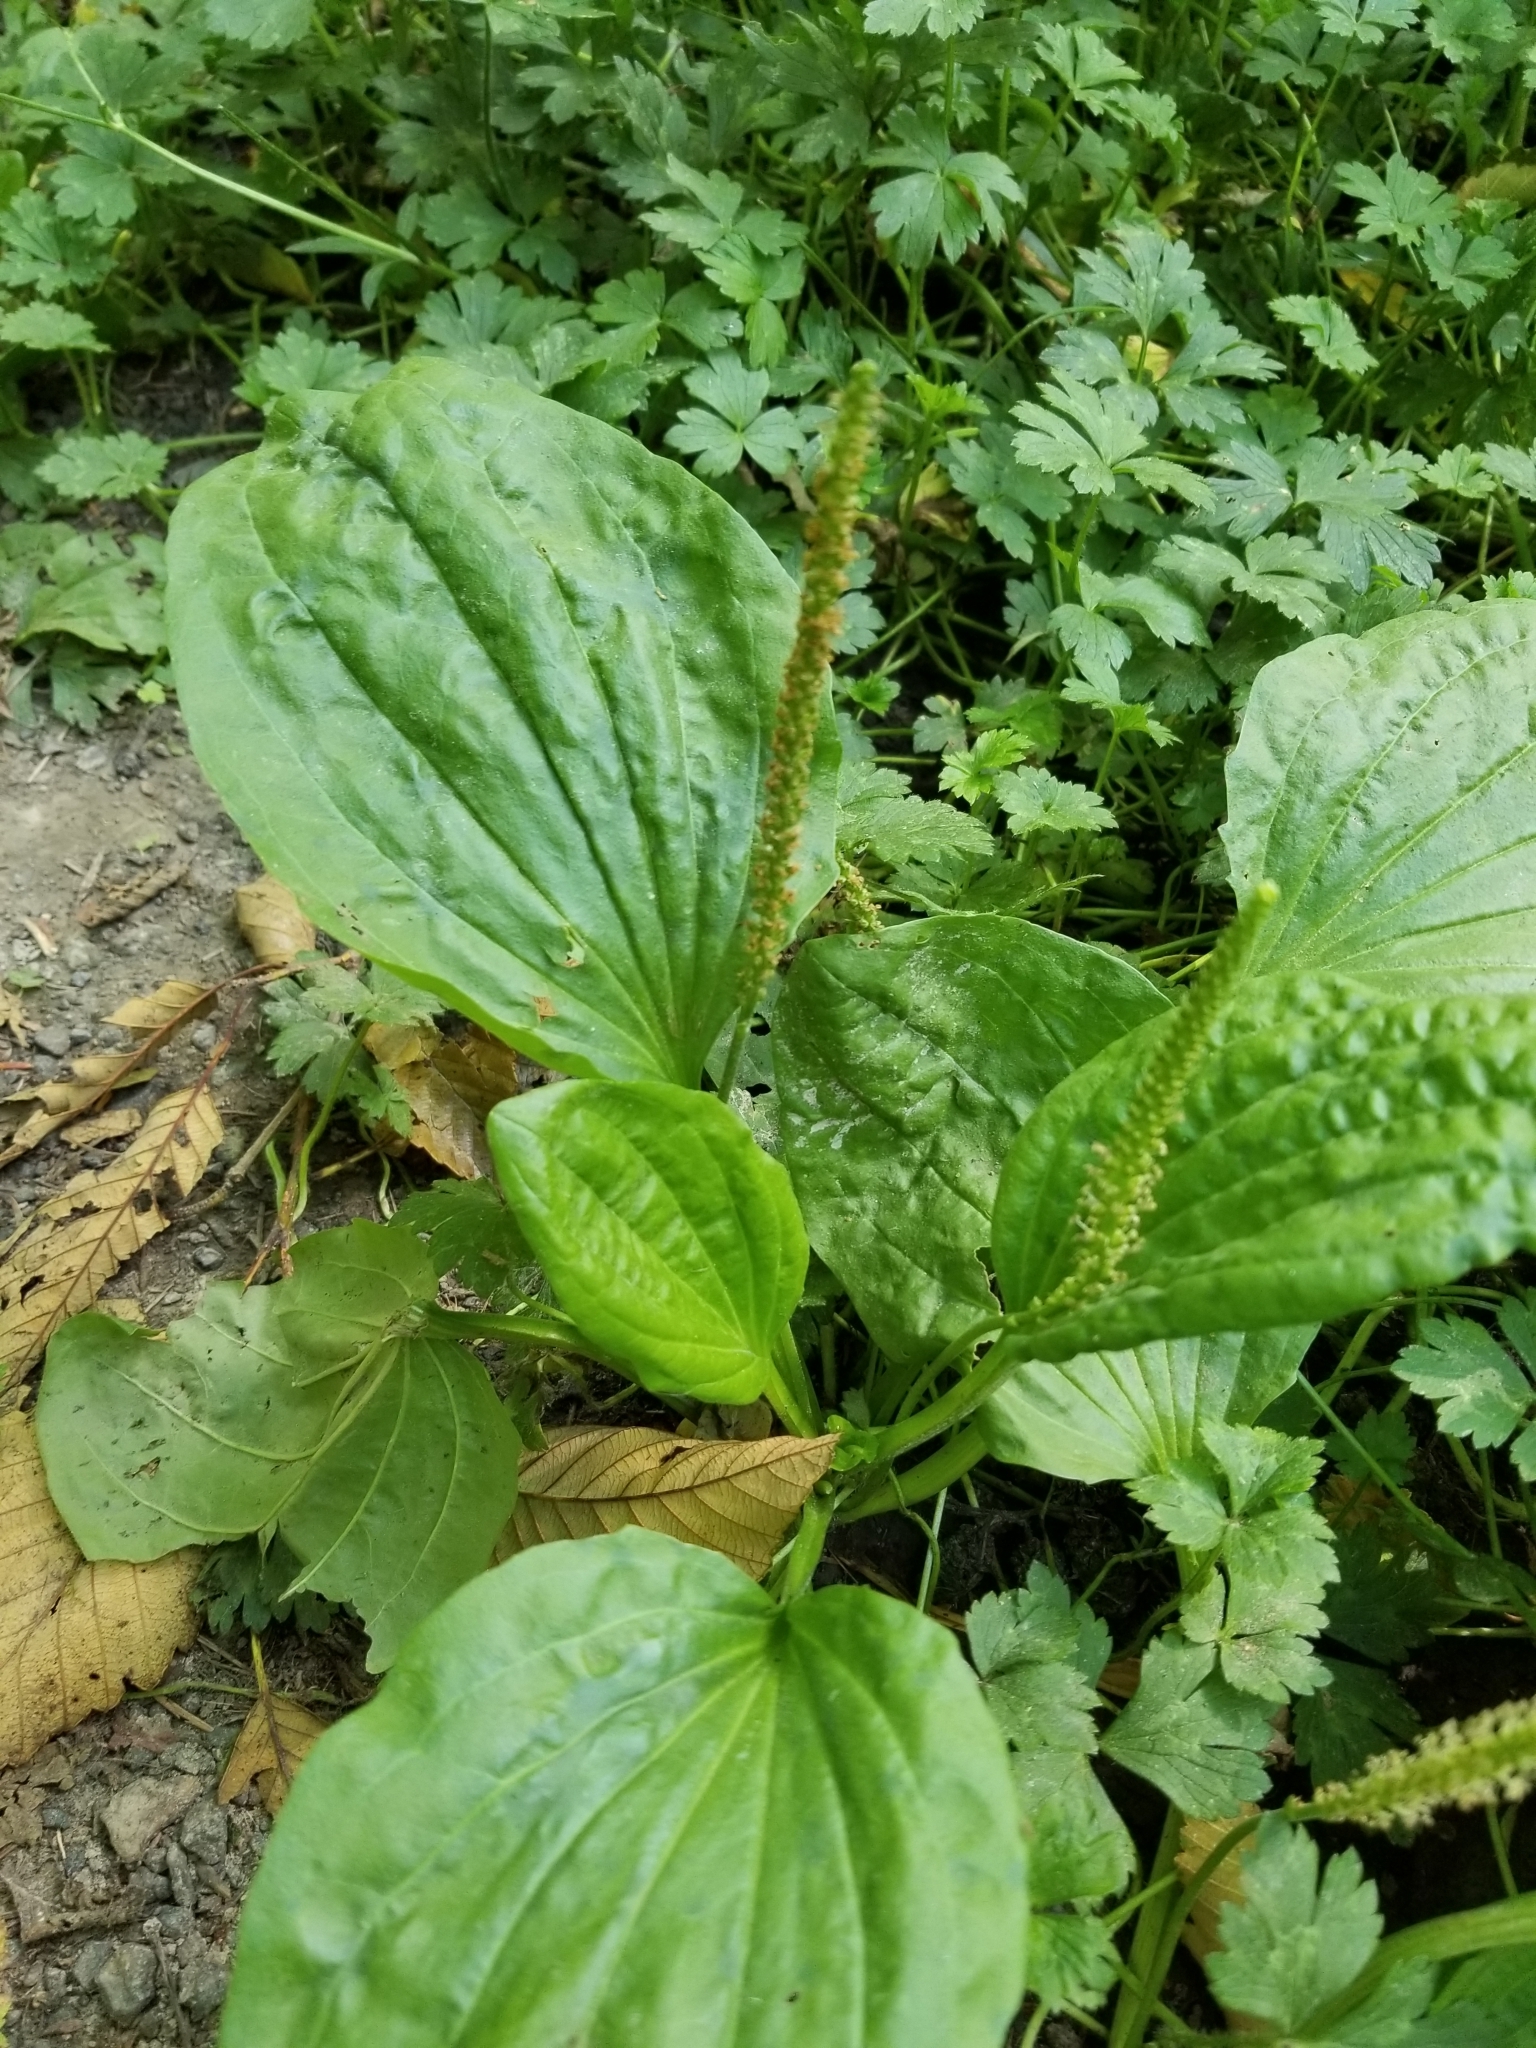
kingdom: Plantae
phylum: Tracheophyta
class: Magnoliopsida
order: Lamiales
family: Plantaginaceae
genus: Plantago
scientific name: Plantago major
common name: Common plantain
